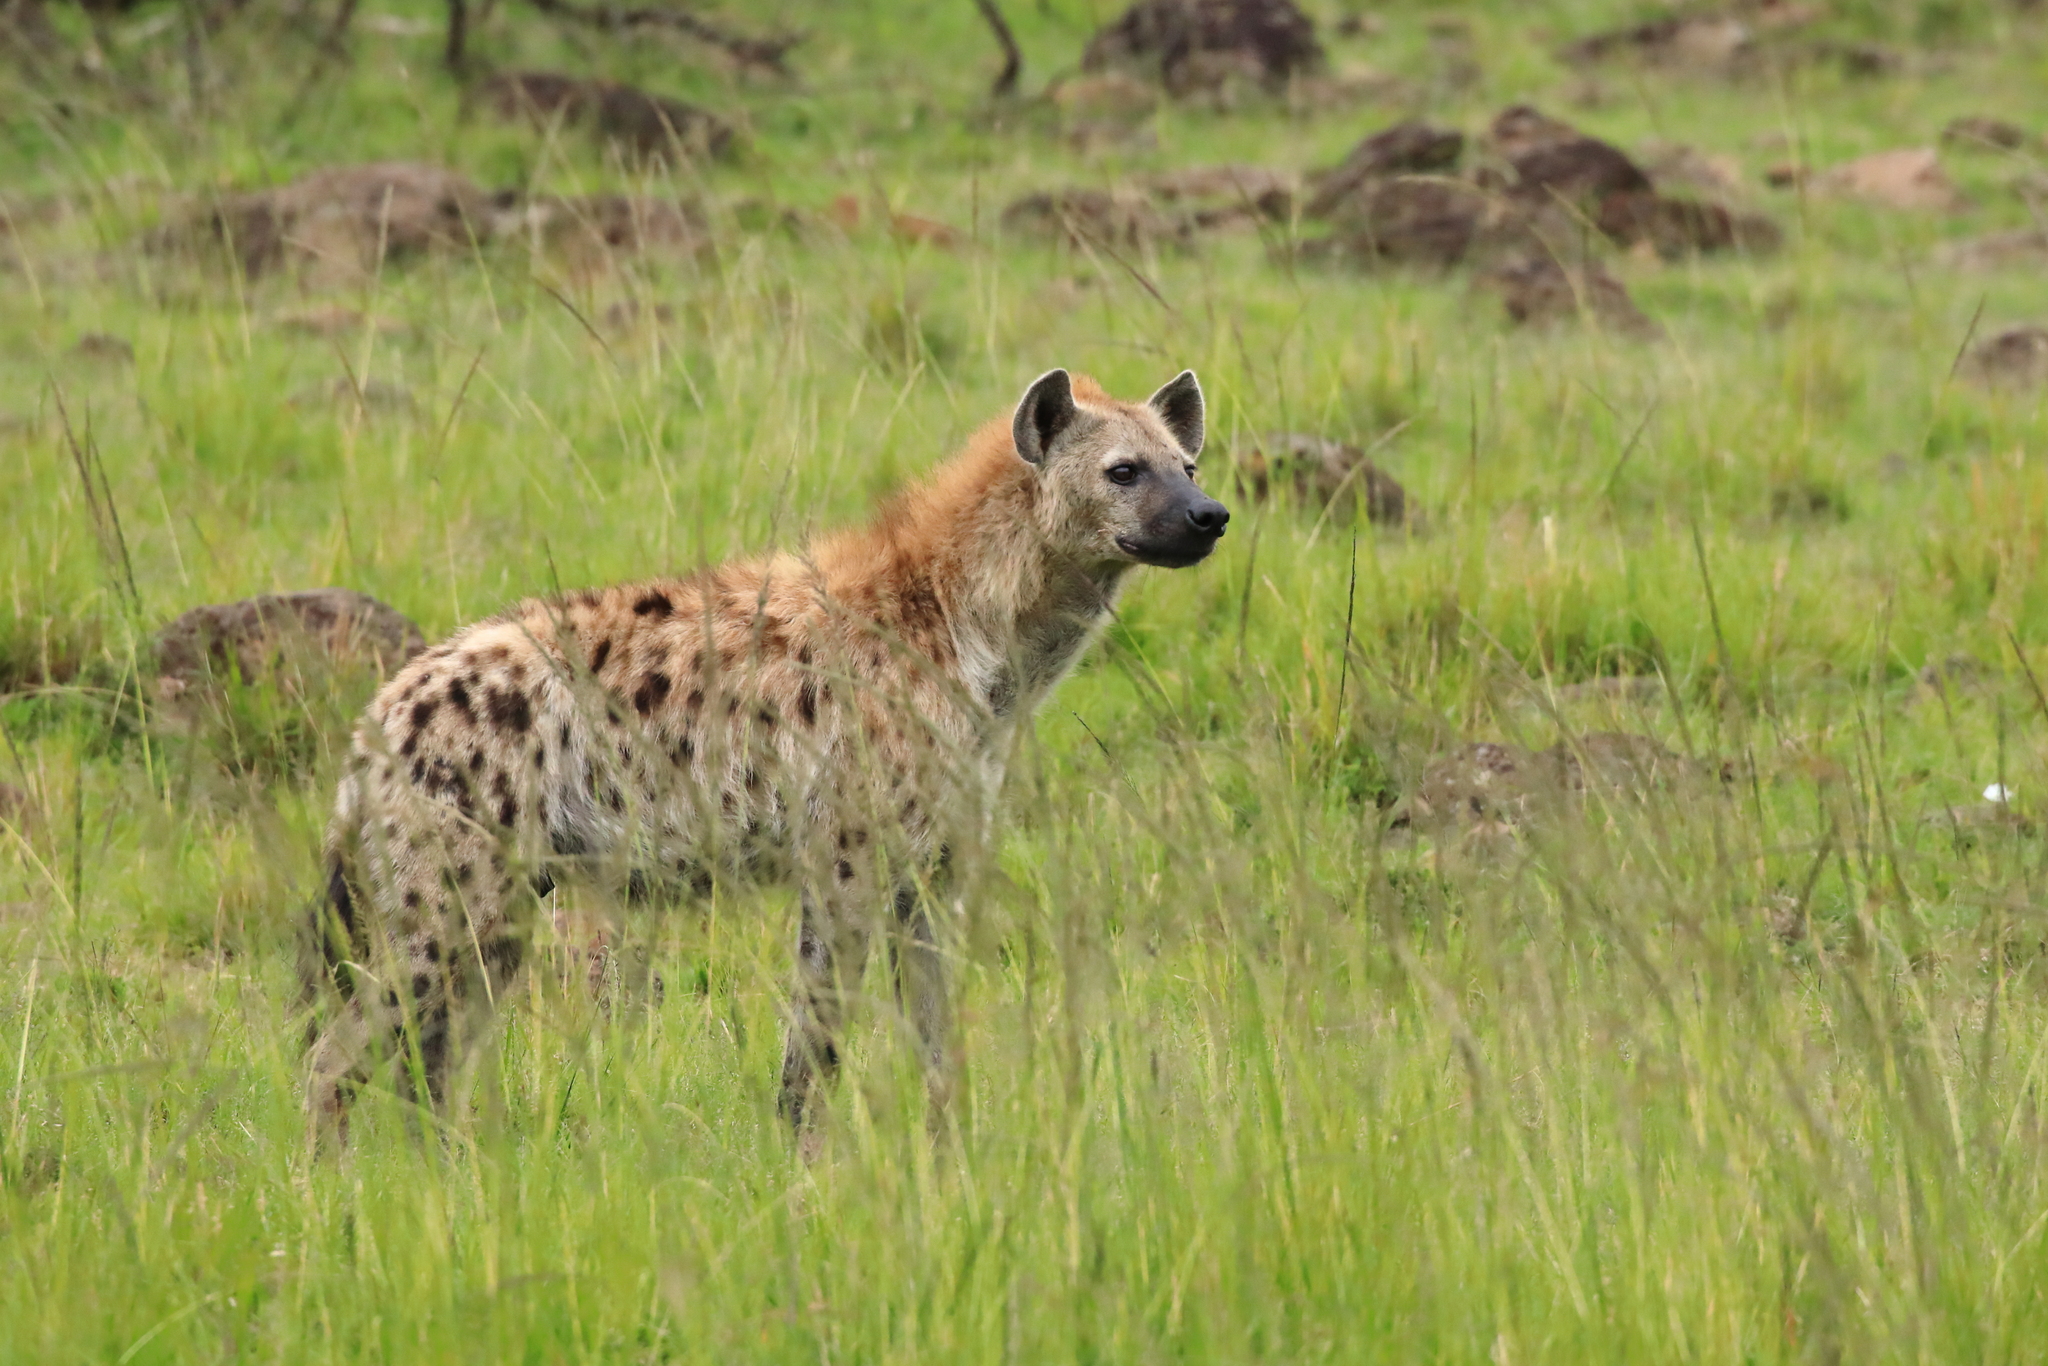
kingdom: Animalia
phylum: Chordata
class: Mammalia
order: Carnivora
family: Hyaenidae
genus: Crocuta
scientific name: Crocuta crocuta
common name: Spotted hyaena
